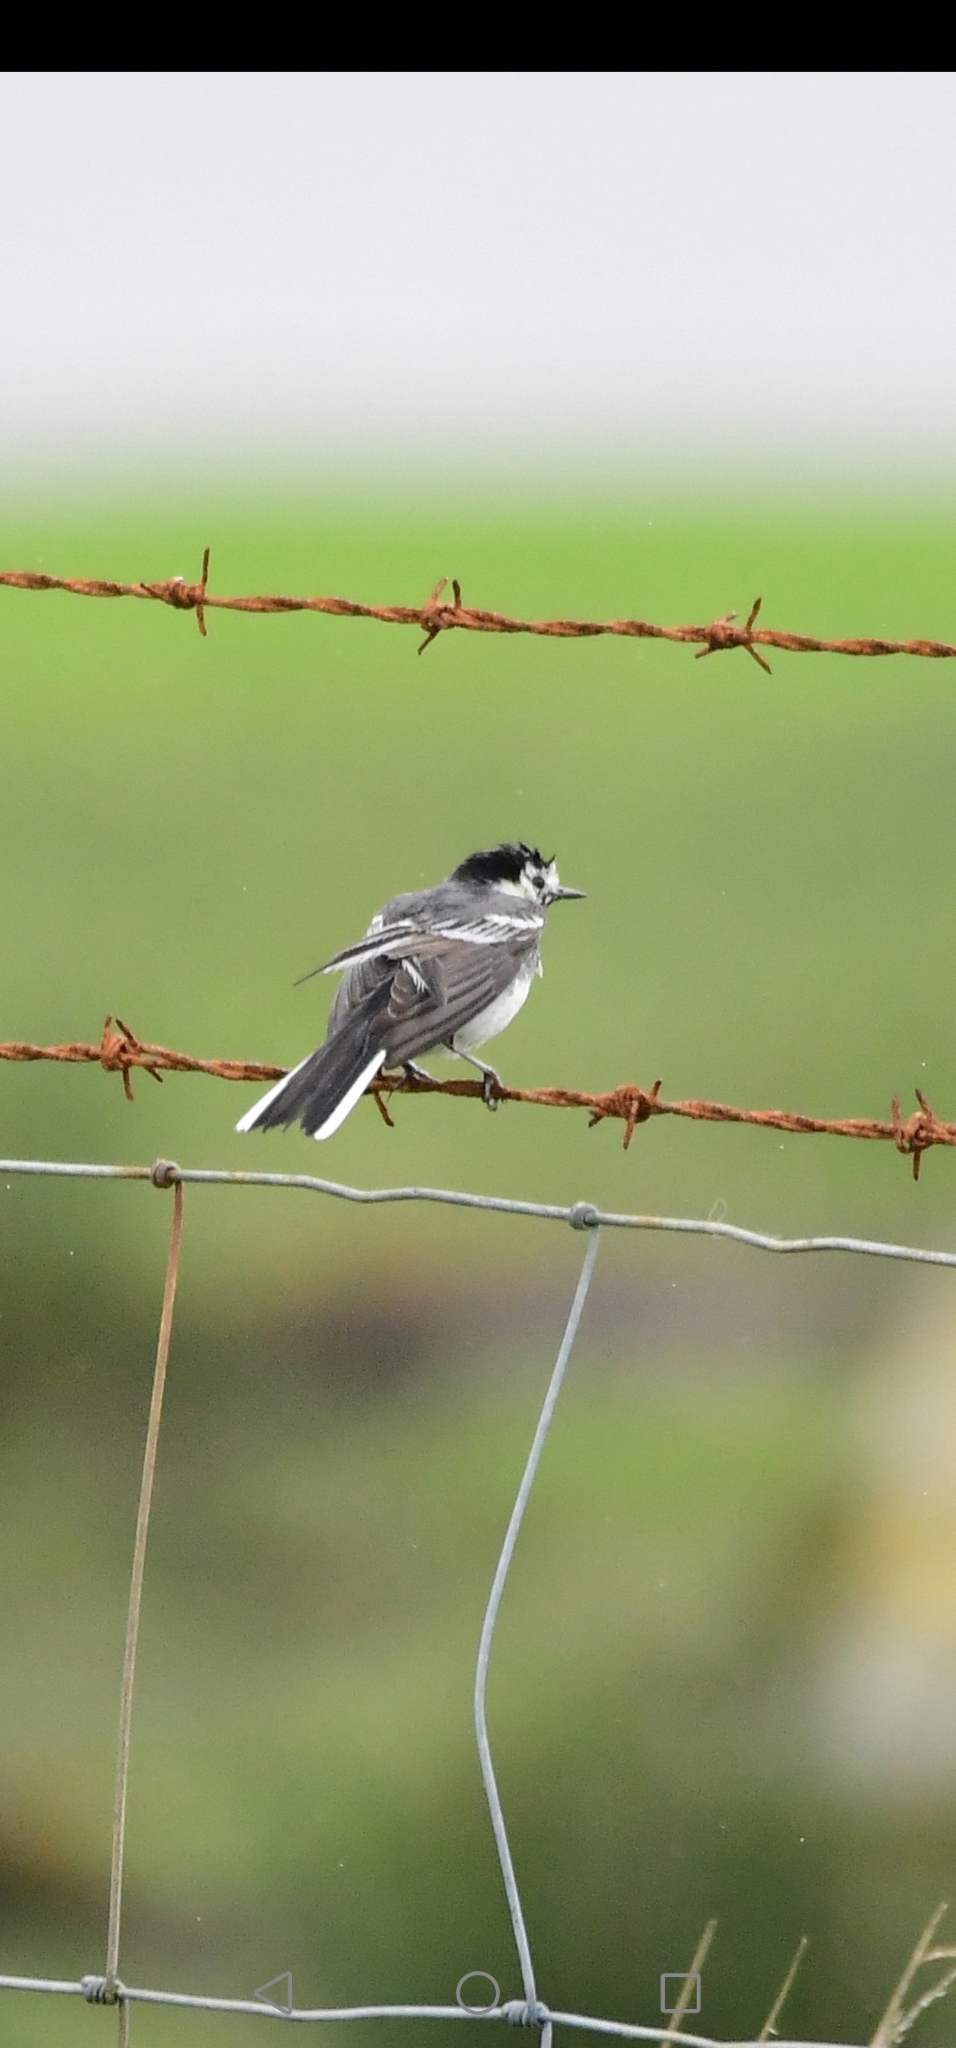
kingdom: Animalia
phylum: Chordata
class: Aves
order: Passeriformes
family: Motacillidae
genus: Motacilla
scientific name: Motacilla alba
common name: White wagtail
